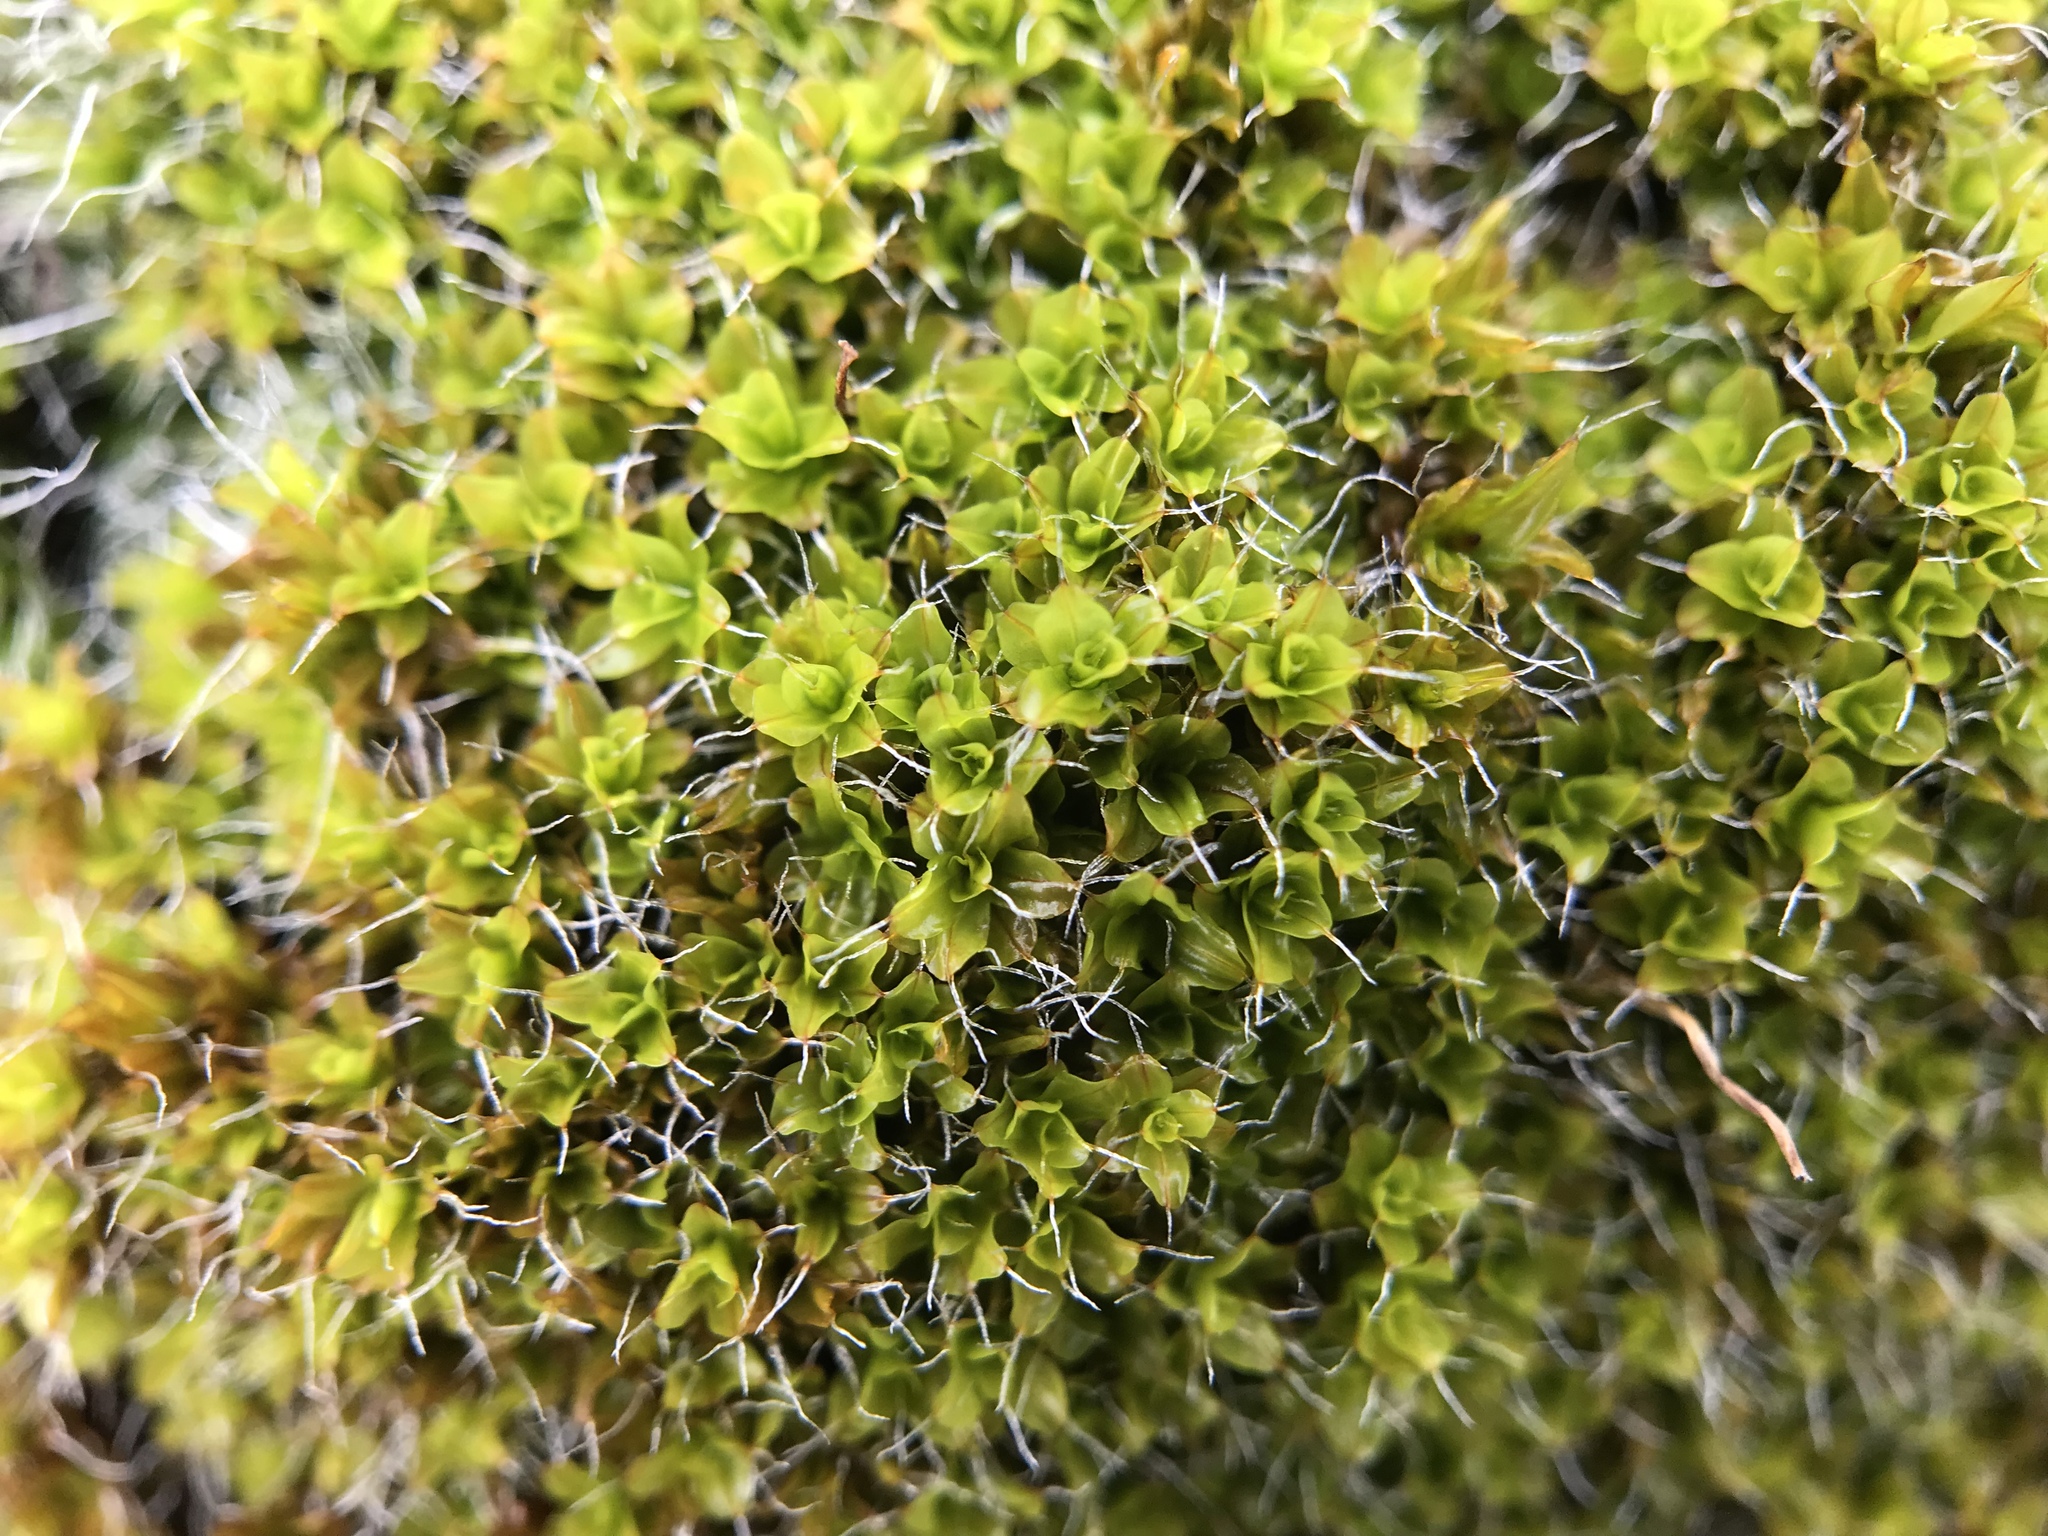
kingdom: Plantae
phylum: Bryophyta
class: Bryopsida
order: Pottiales
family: Pottiaceae
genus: Syntrichia
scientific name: Syntrichia montana
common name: Intermediate screw-moss
